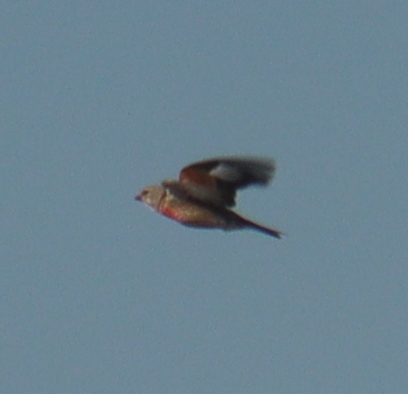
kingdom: Animalia
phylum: Chordata
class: Aves
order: Passeriformes
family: Fringillidae
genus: Linaria
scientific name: Linaria cannabina
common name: Common linnet
